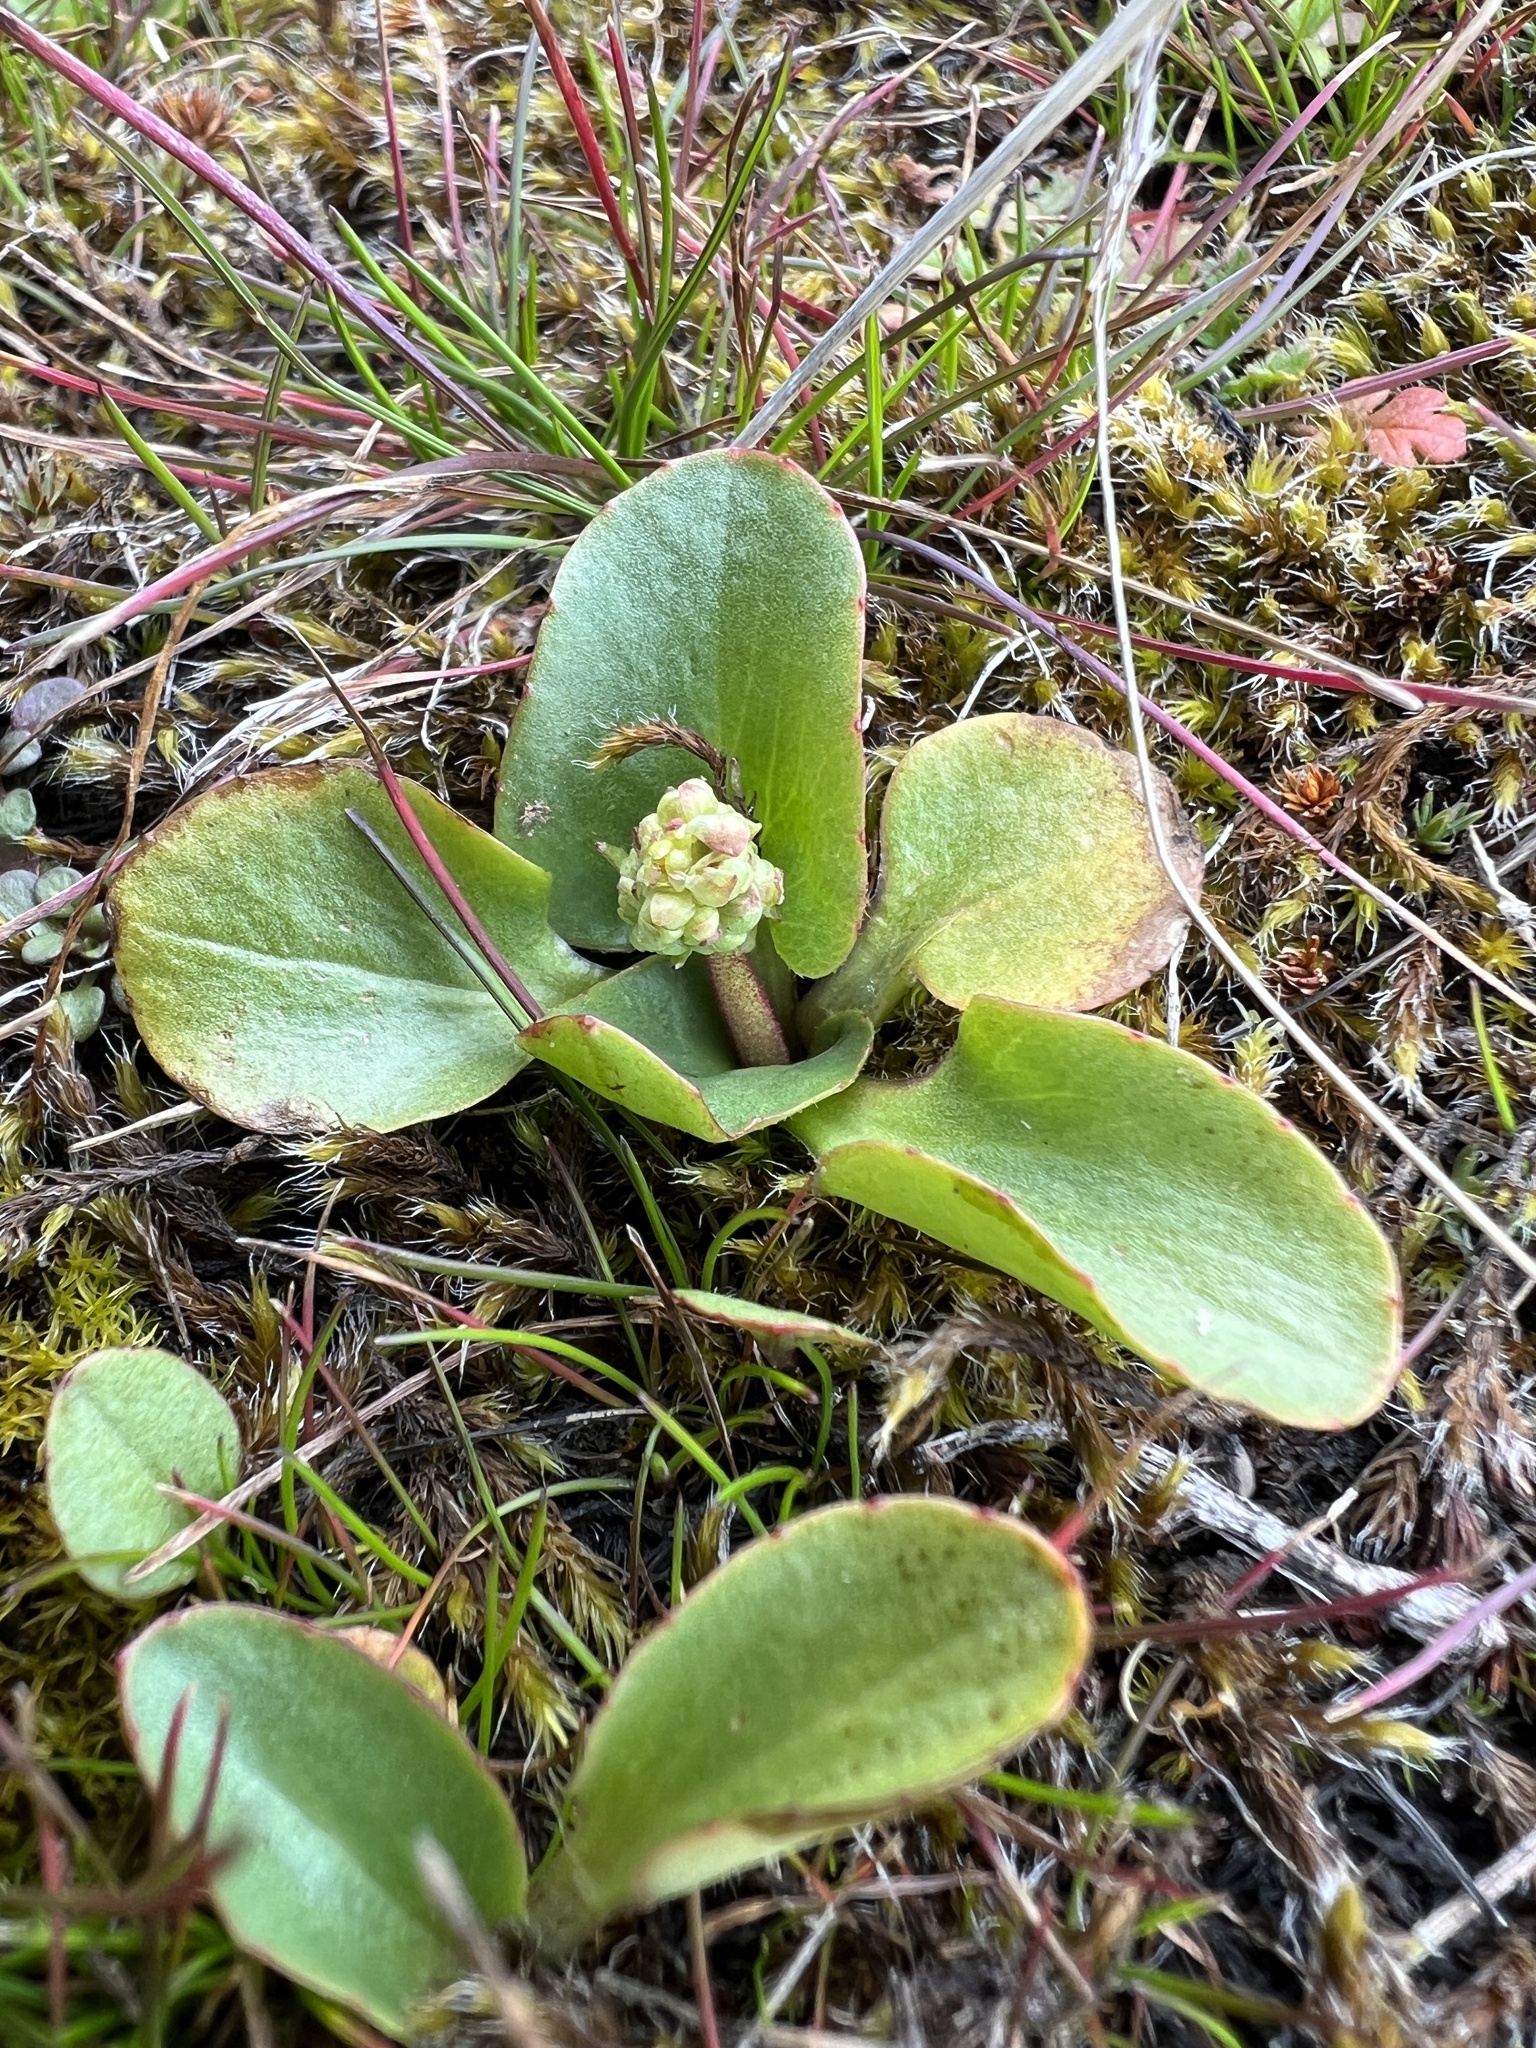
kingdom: Plantae
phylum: Tracheophyta
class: Magnoliopsida
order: Saxifragales
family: Saxifragaceae
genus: Micranthes
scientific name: Micranthes integrifolia
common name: Wholeleaf saxifrage
